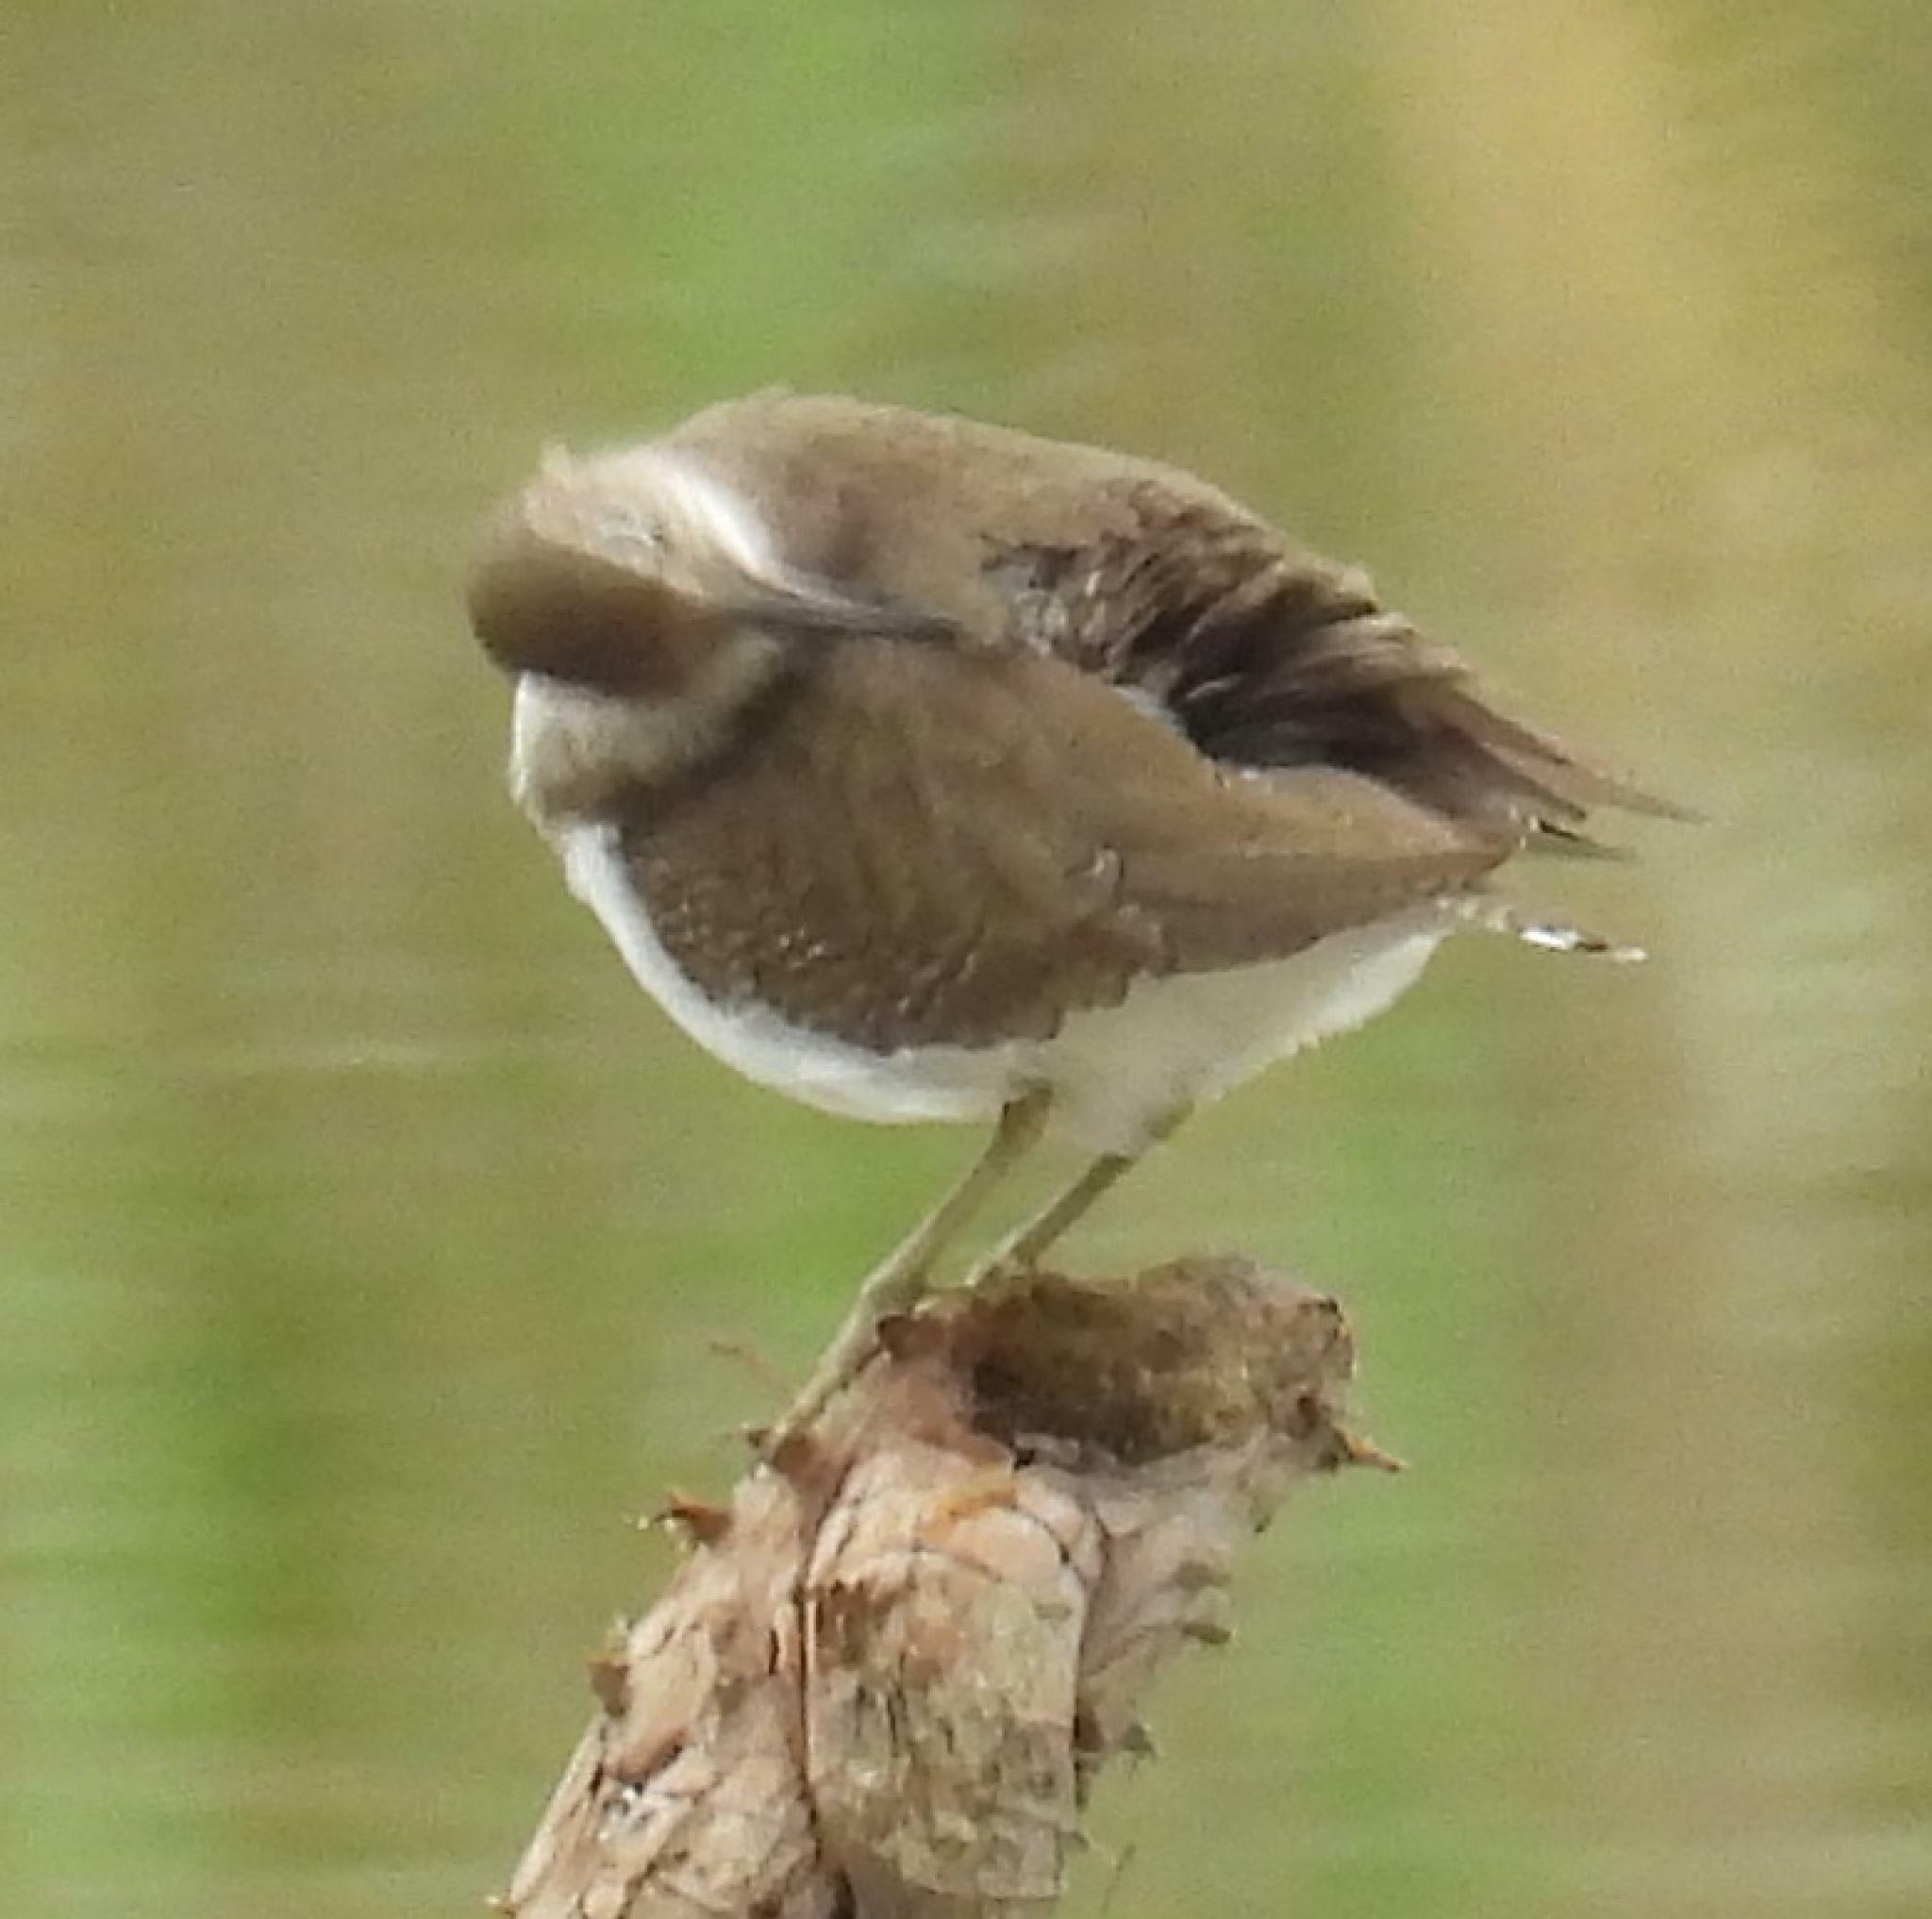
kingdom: Animalia
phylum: Chordata
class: Aves
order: Charadriiformes
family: Scolopacidae
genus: Actitis
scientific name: Actitis hypoleucos
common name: Common sandpiper
